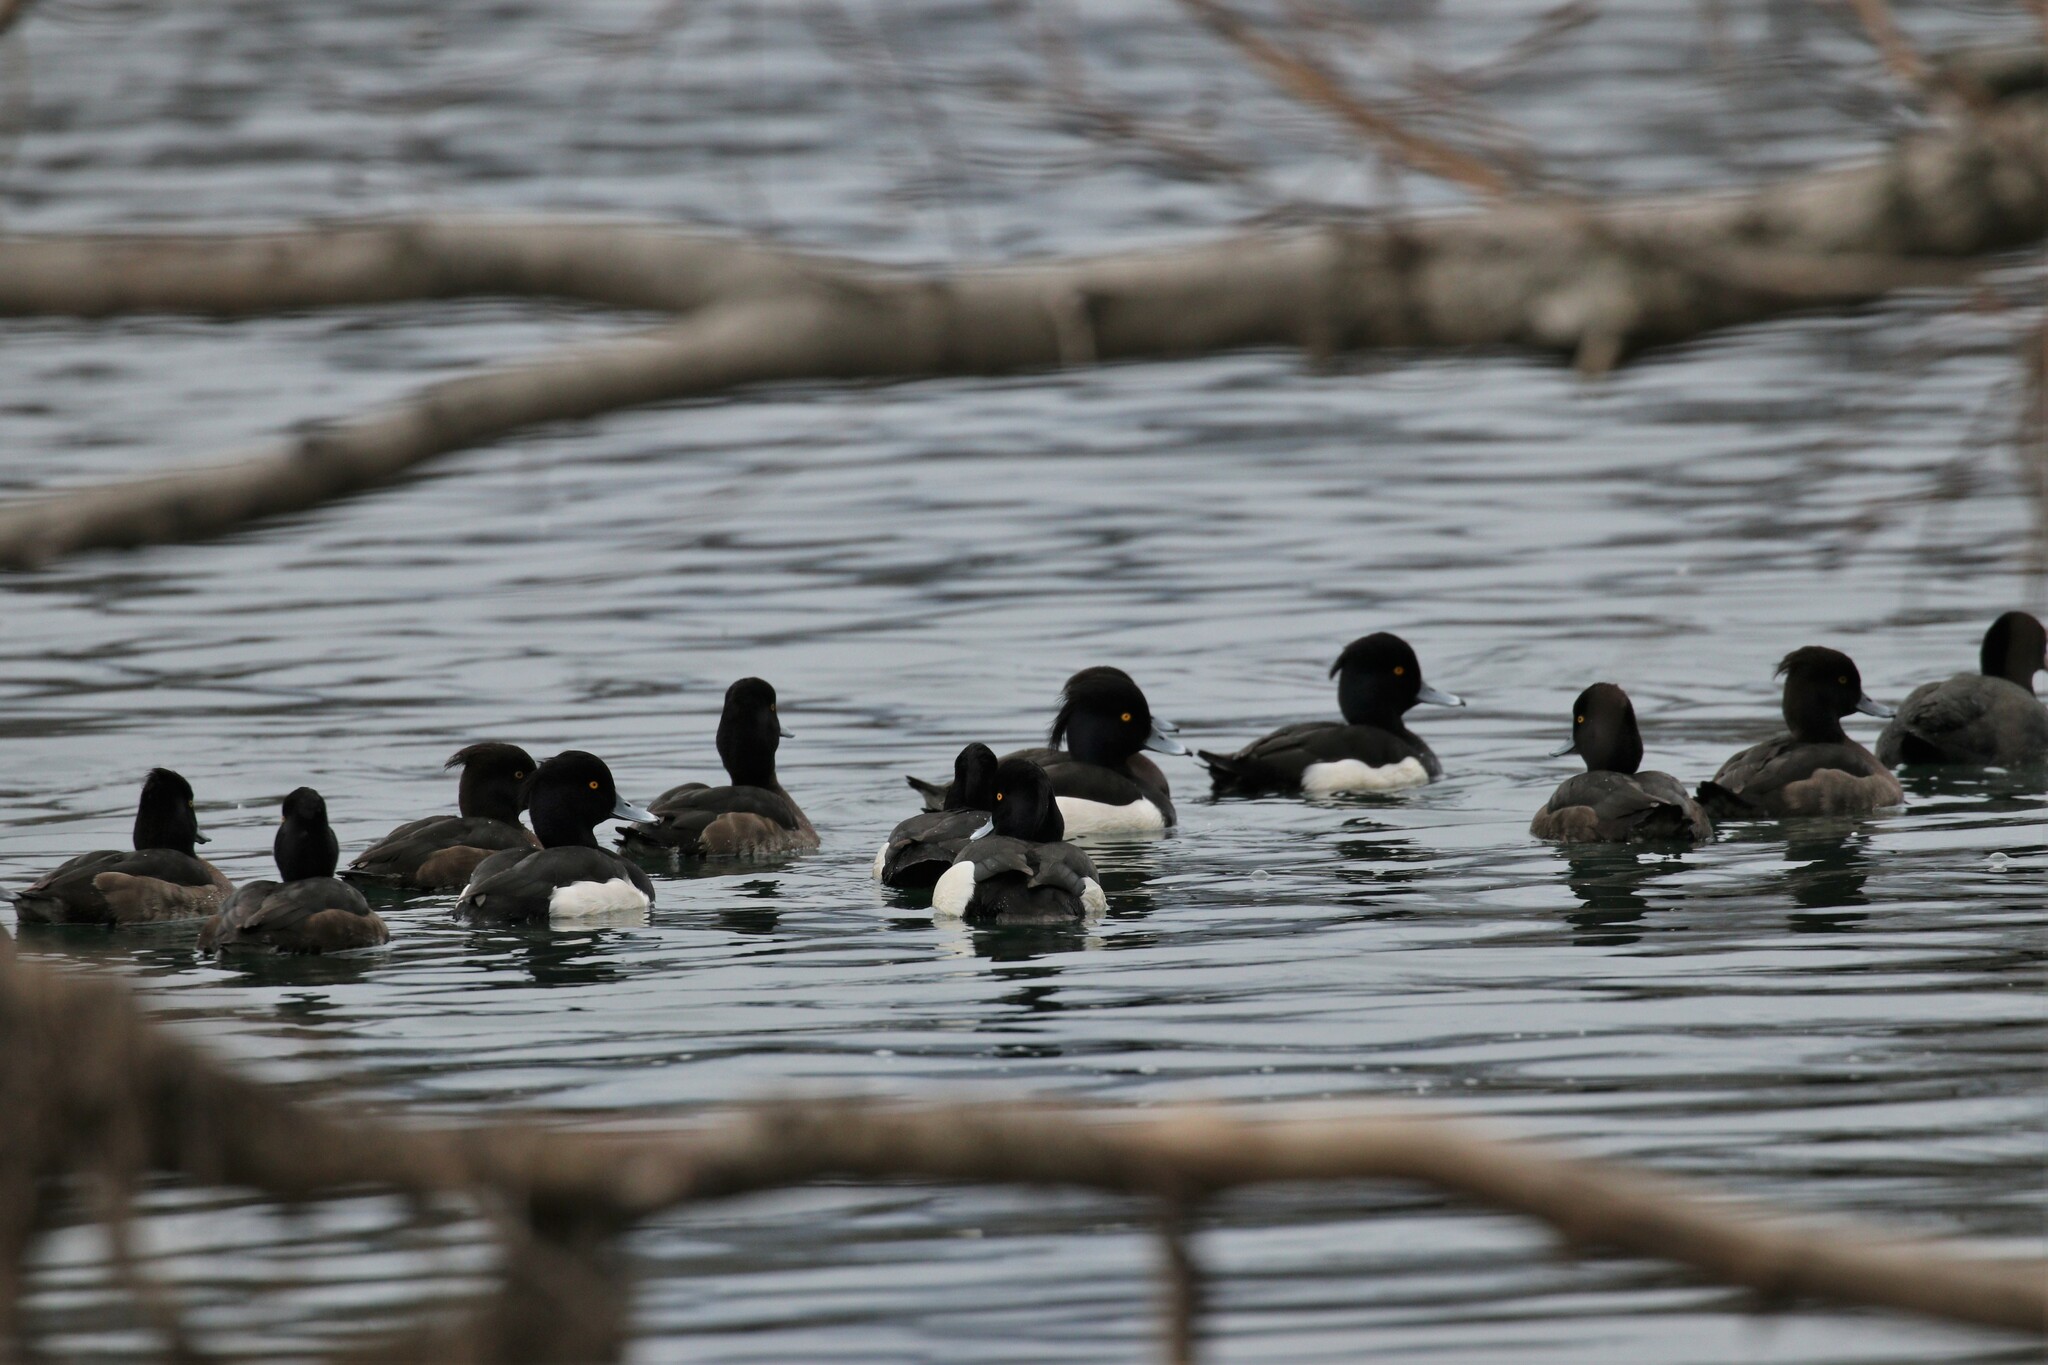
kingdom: Animalia
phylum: Chordata
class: Aves
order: Anseriformes
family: Anatidae
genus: Aythya
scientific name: Aythya fuligula
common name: Tufted duck
